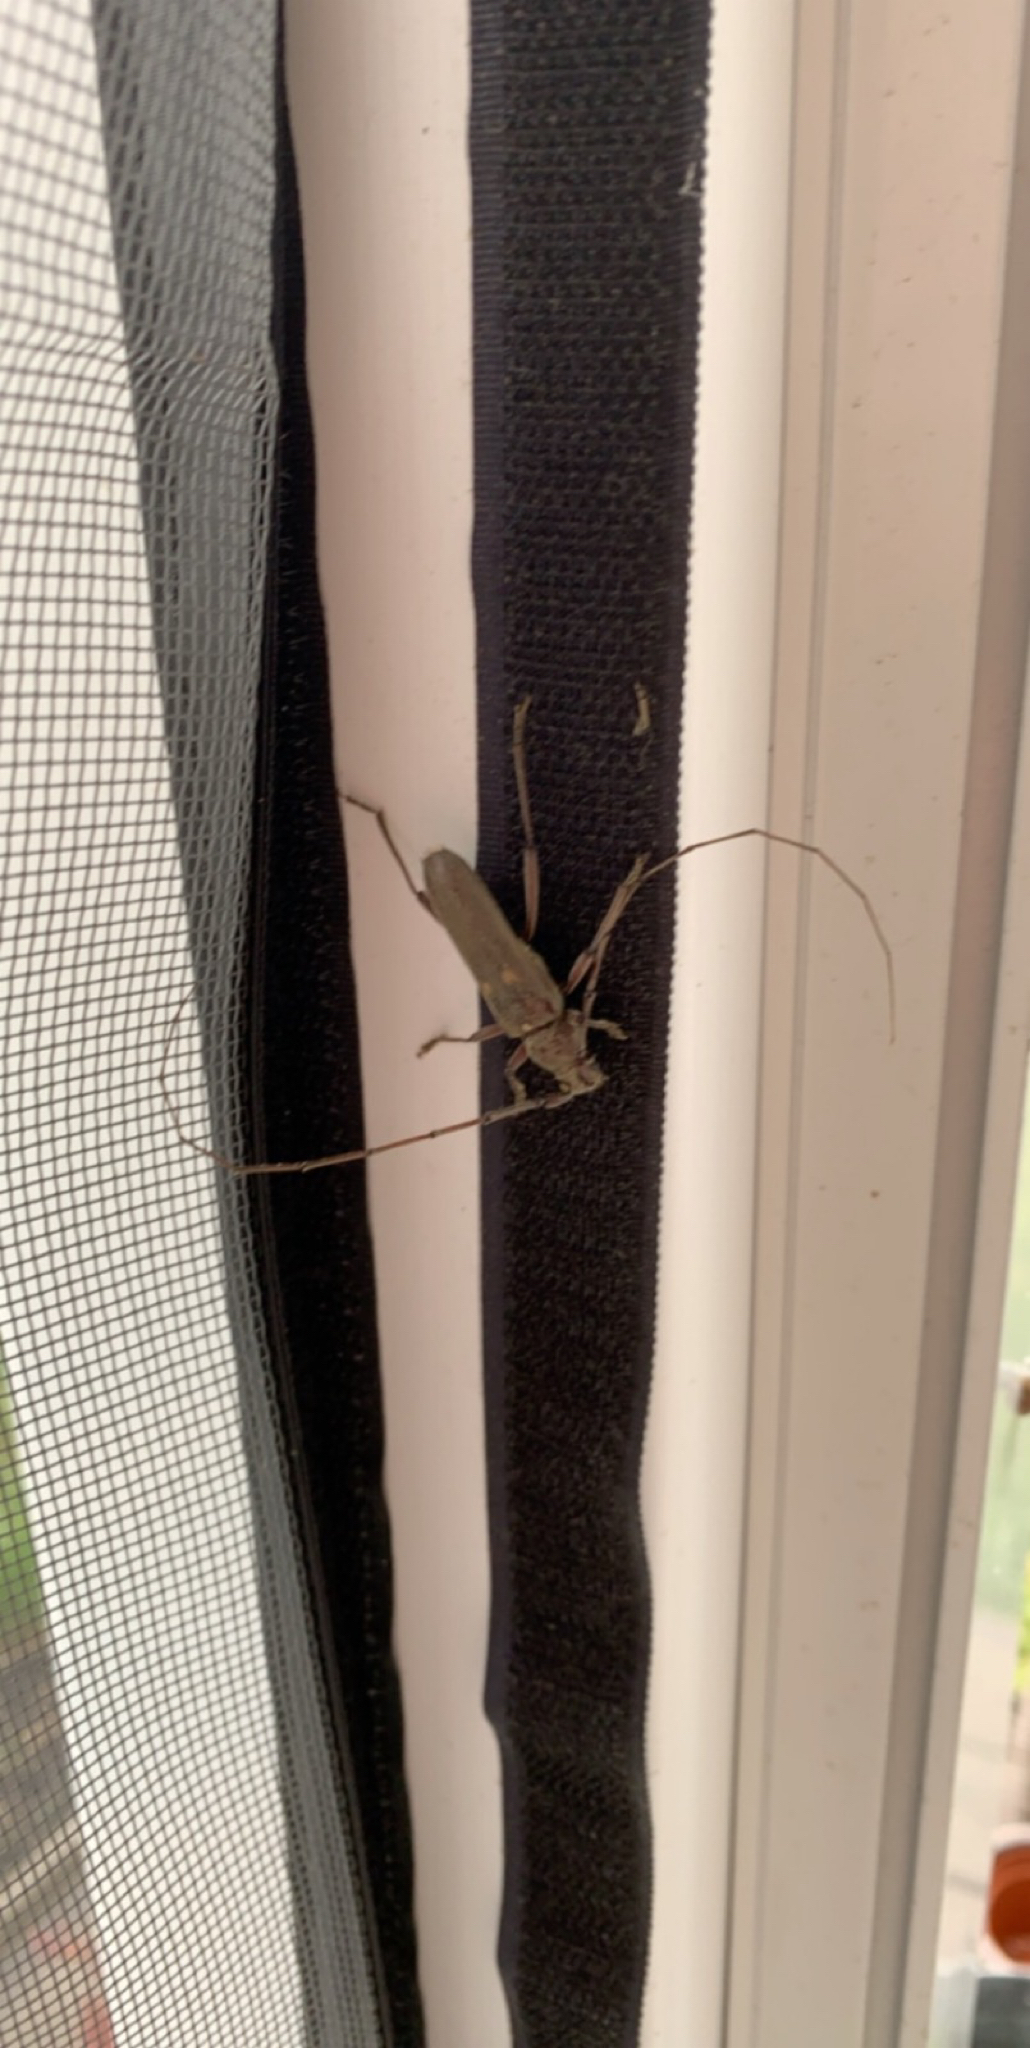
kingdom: Animalia
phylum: Arthropoda
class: Insecta
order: Coleoptera
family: Cerambycidae
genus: Knulliana
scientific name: Knulliana cincta
